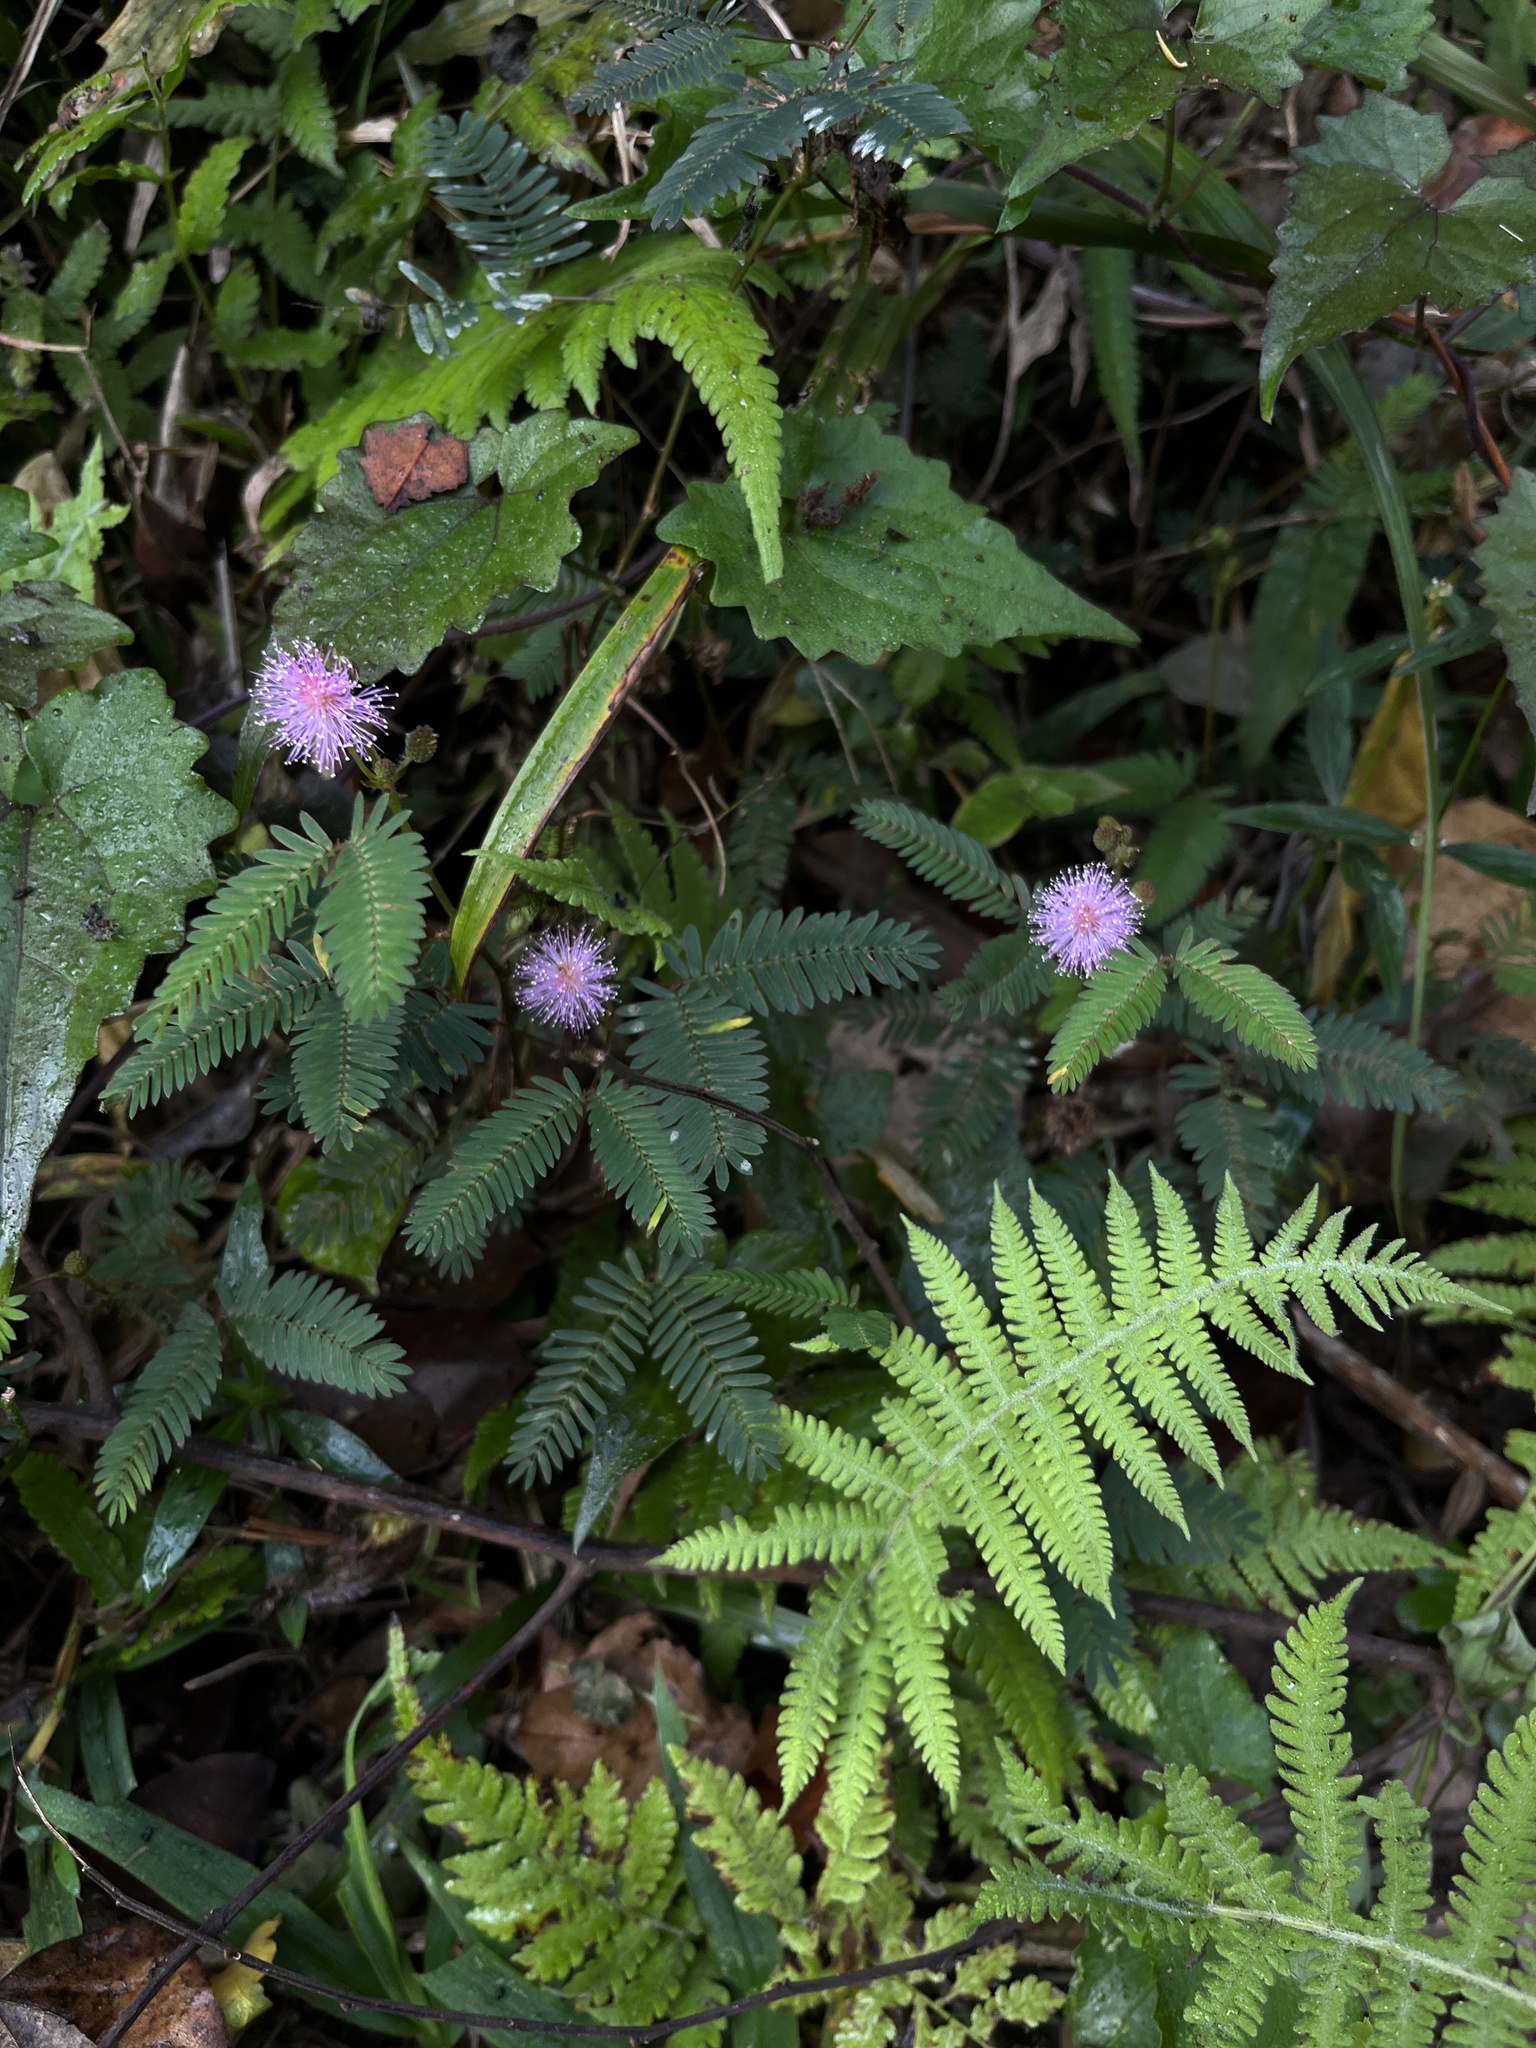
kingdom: Plantae
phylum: Tracheophyta
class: Magnoliopsida
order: Fabales
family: Fabaceae
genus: Mimosa
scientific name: Mimosa pudica
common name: Sensitive plant
